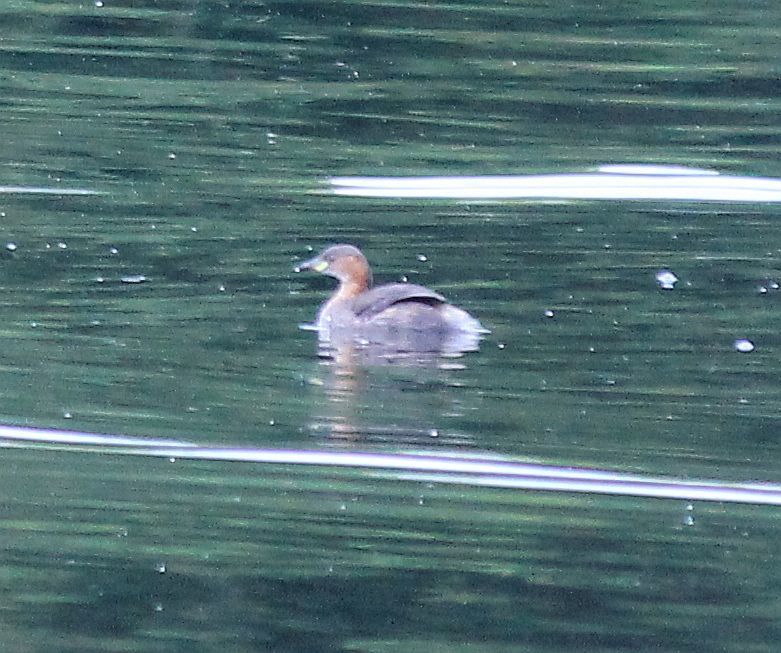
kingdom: Animalia
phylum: Chordata
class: Aves
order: Podicipediformes
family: Podicipedidae
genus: Tachybaptus
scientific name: Tachybaptus ruficollis
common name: Little grebe
